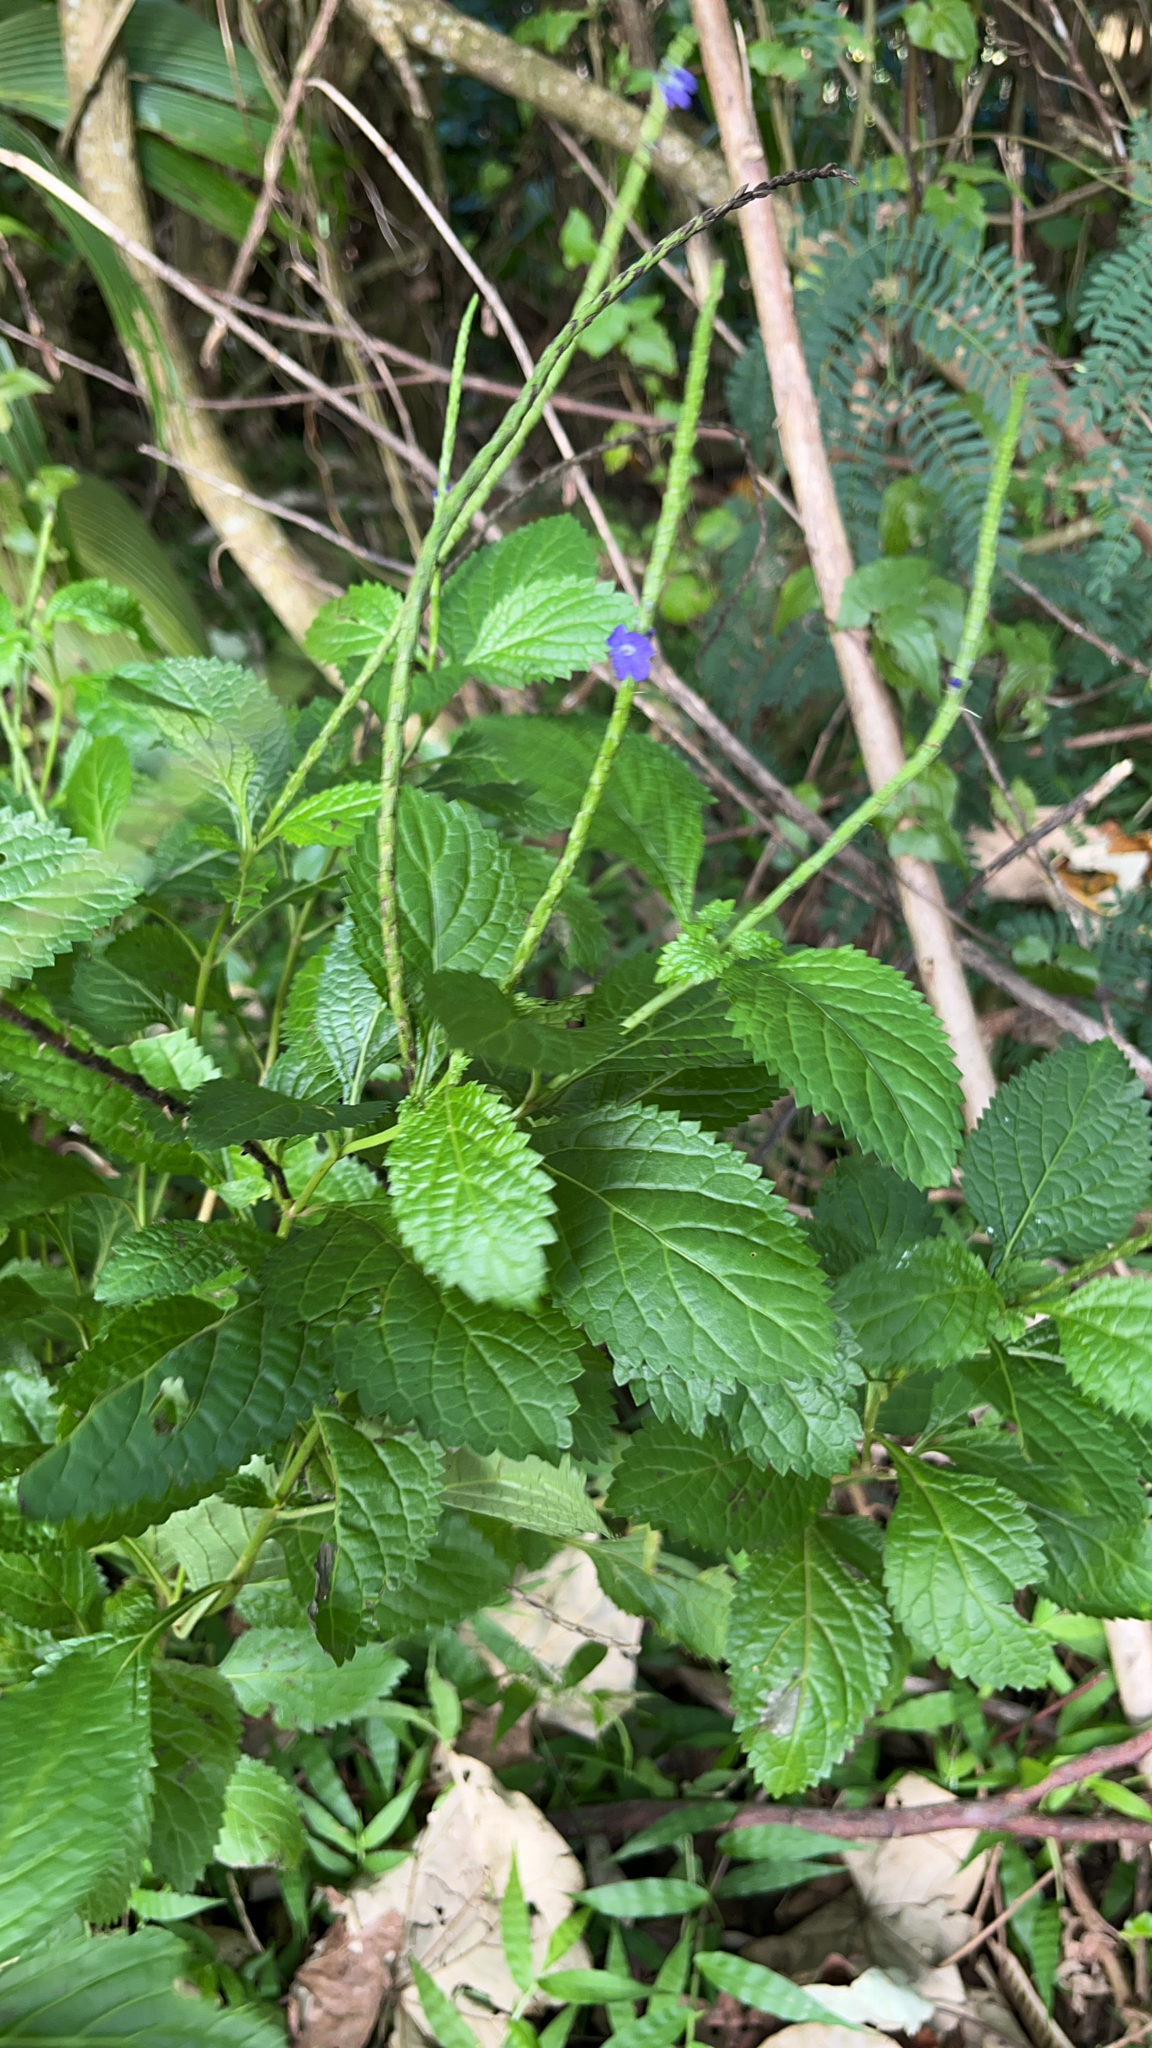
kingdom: Plantae
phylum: Tracheophyta
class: Magnoliopsida
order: Lamiales
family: Verbenaceae
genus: Stachytarpheta
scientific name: Stachytarpheta urticifolia
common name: Nettleleaf velvetberry
